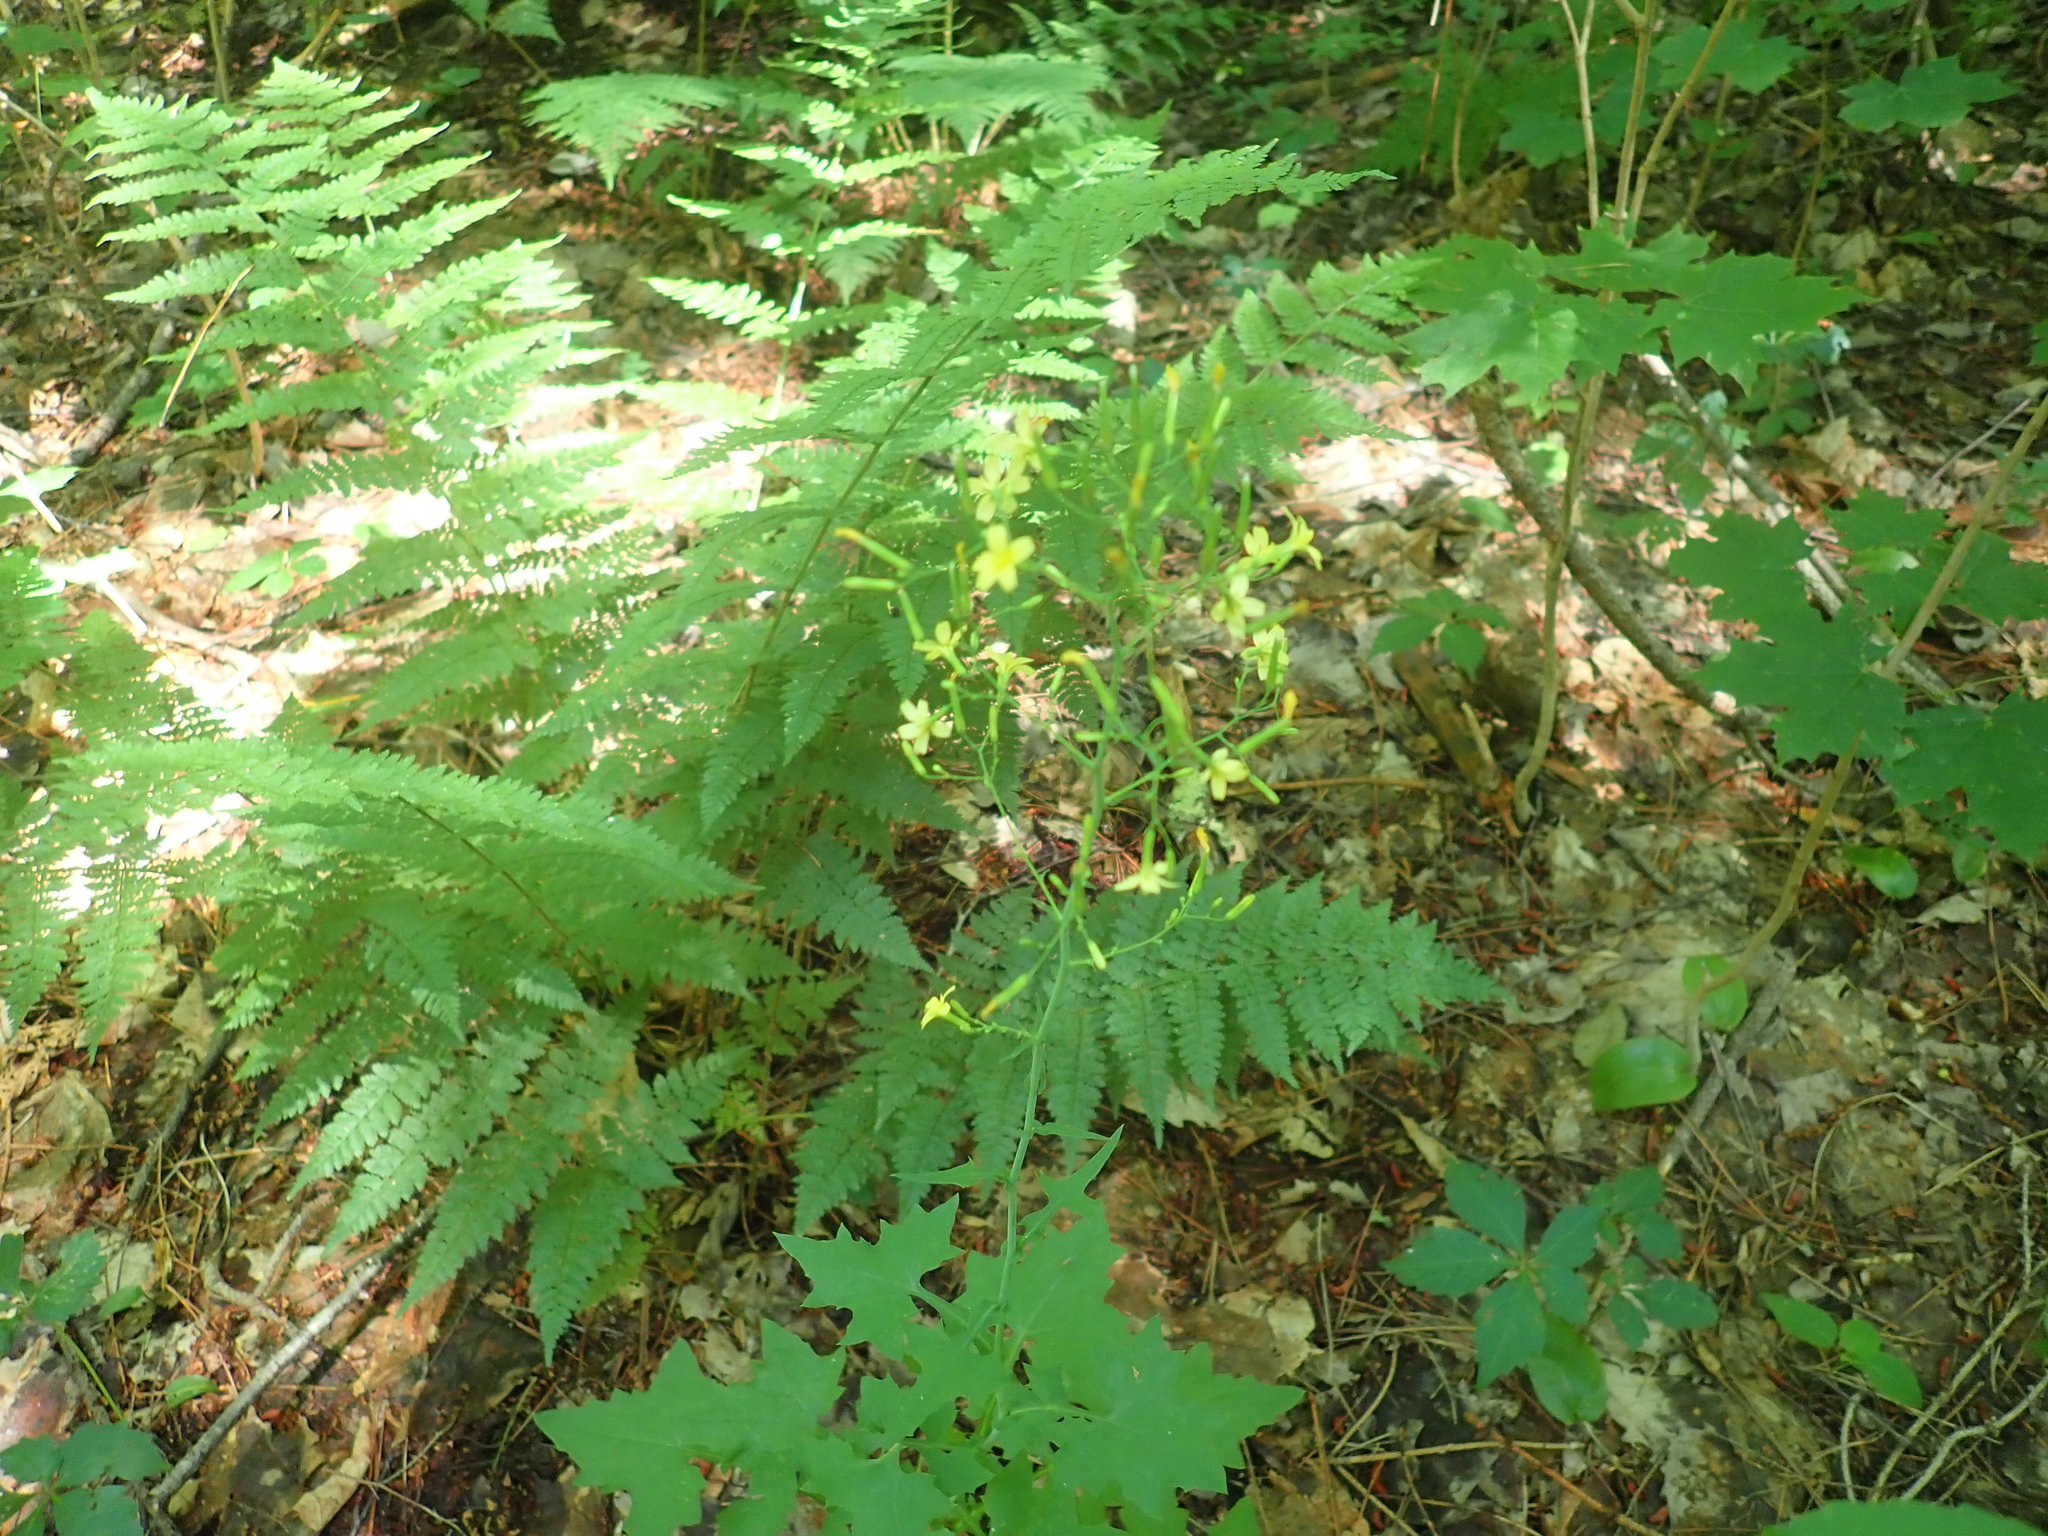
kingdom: Plantae
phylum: Tracheophyta
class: Magnoliopsida
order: Asterales
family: Asteraceae
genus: Mycelis
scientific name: Mycelis muralis
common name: Wall lettuce
